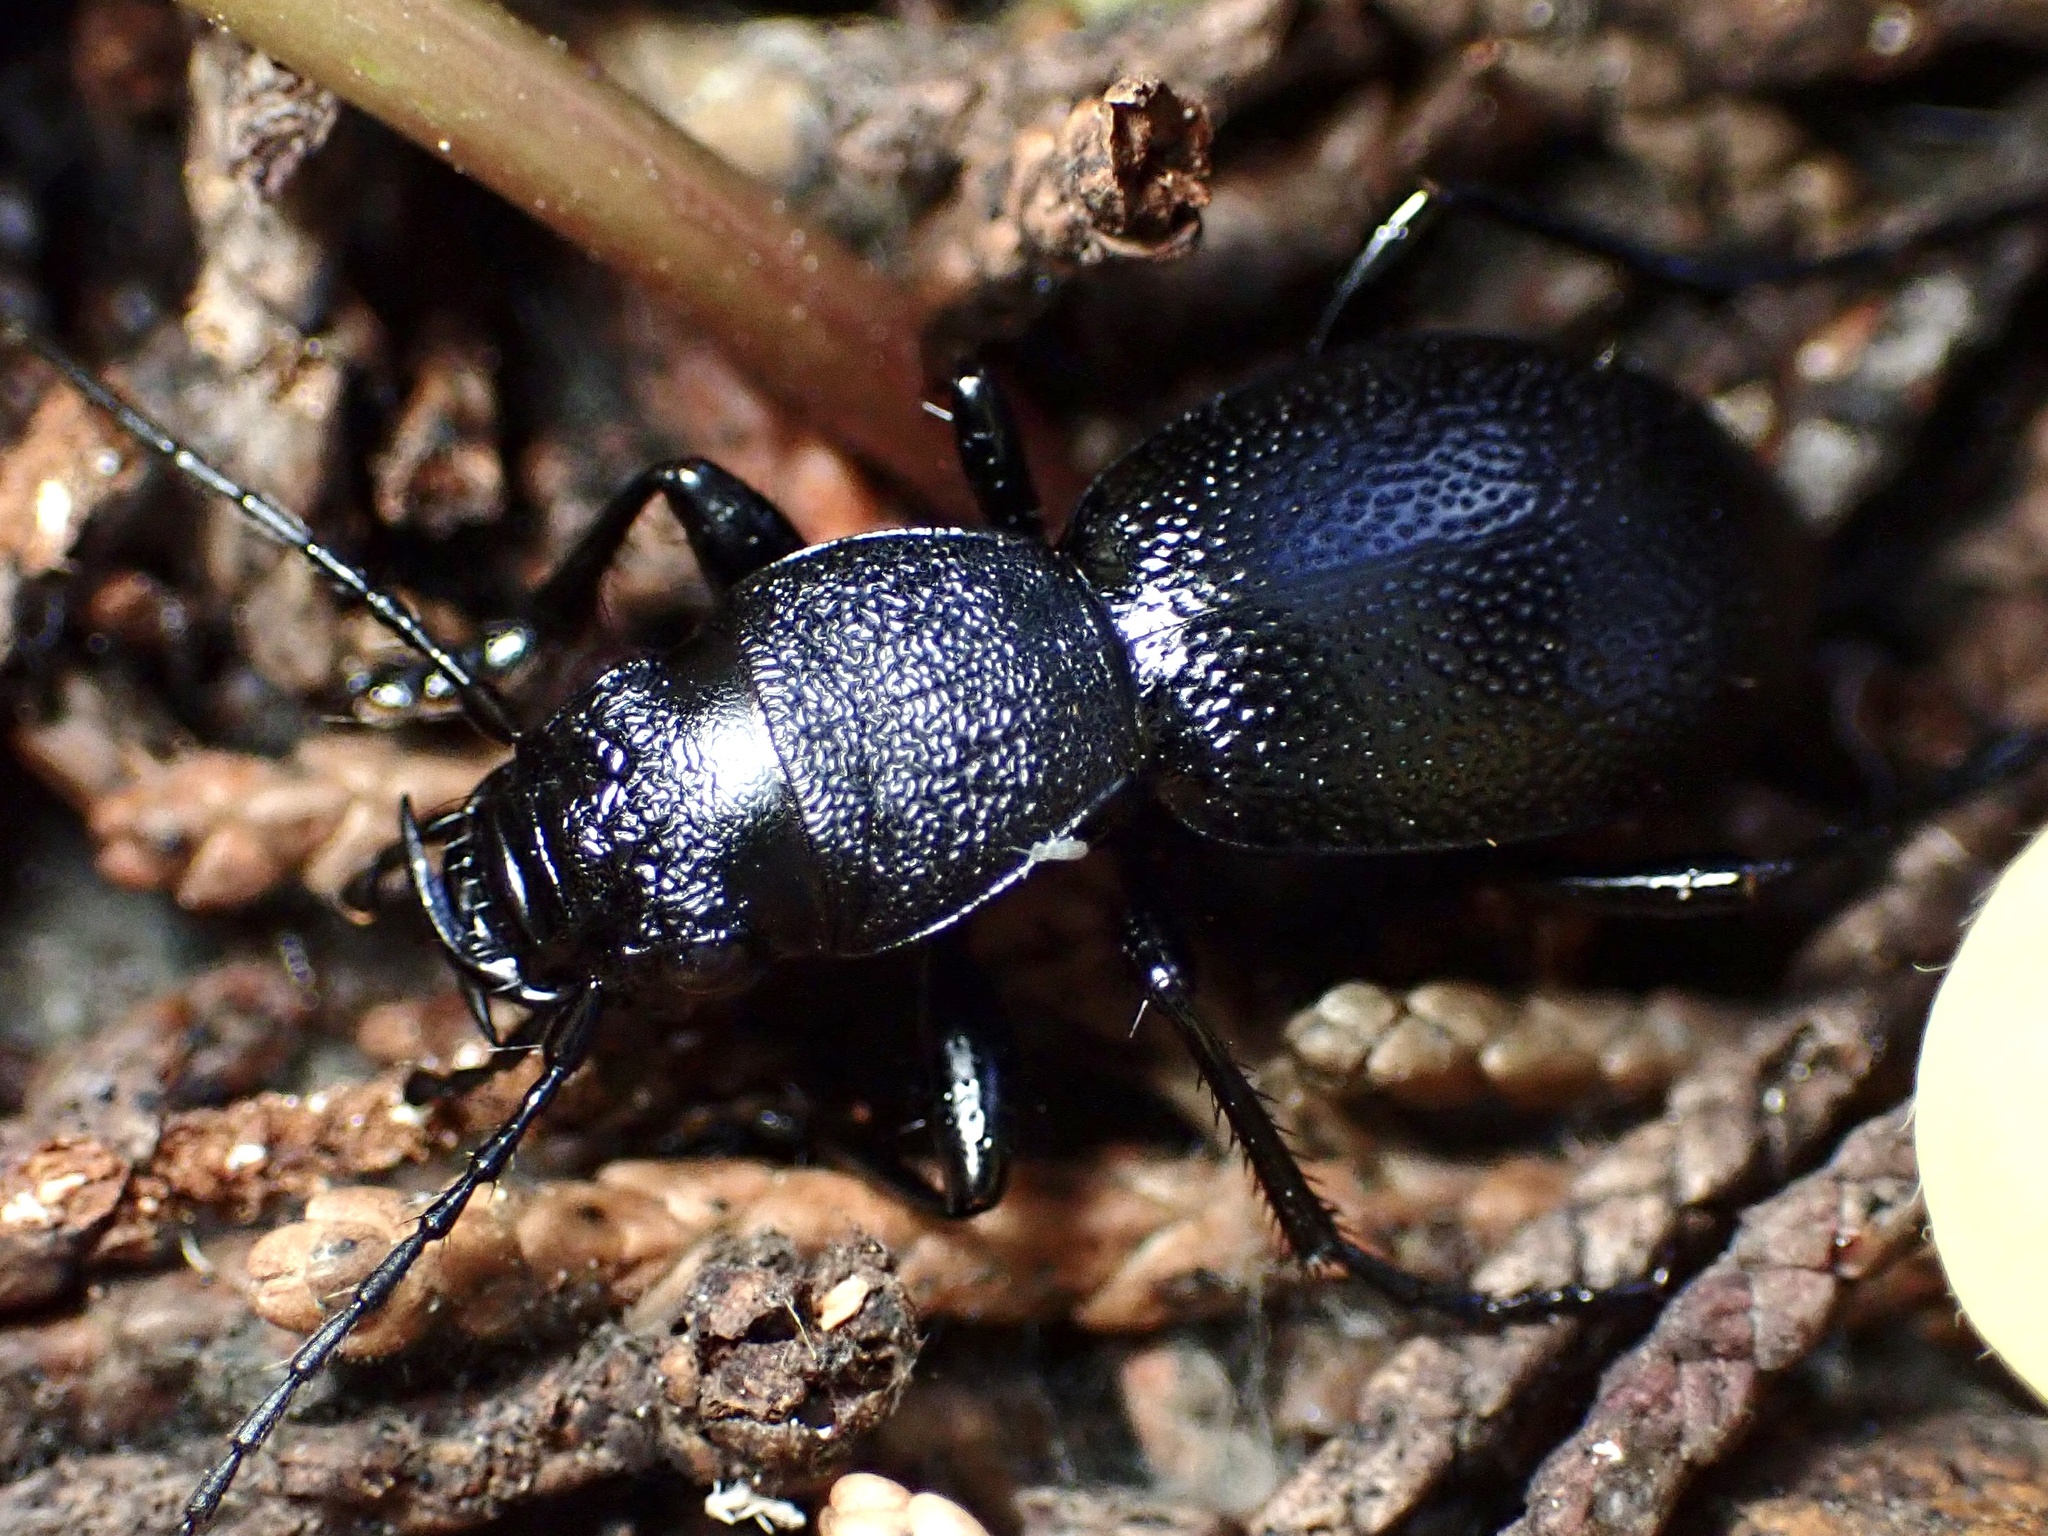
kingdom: Animalia
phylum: Arthropoda
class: Insecta
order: Coleoptera
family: Carabidae
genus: Omus
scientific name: Omus californicus
